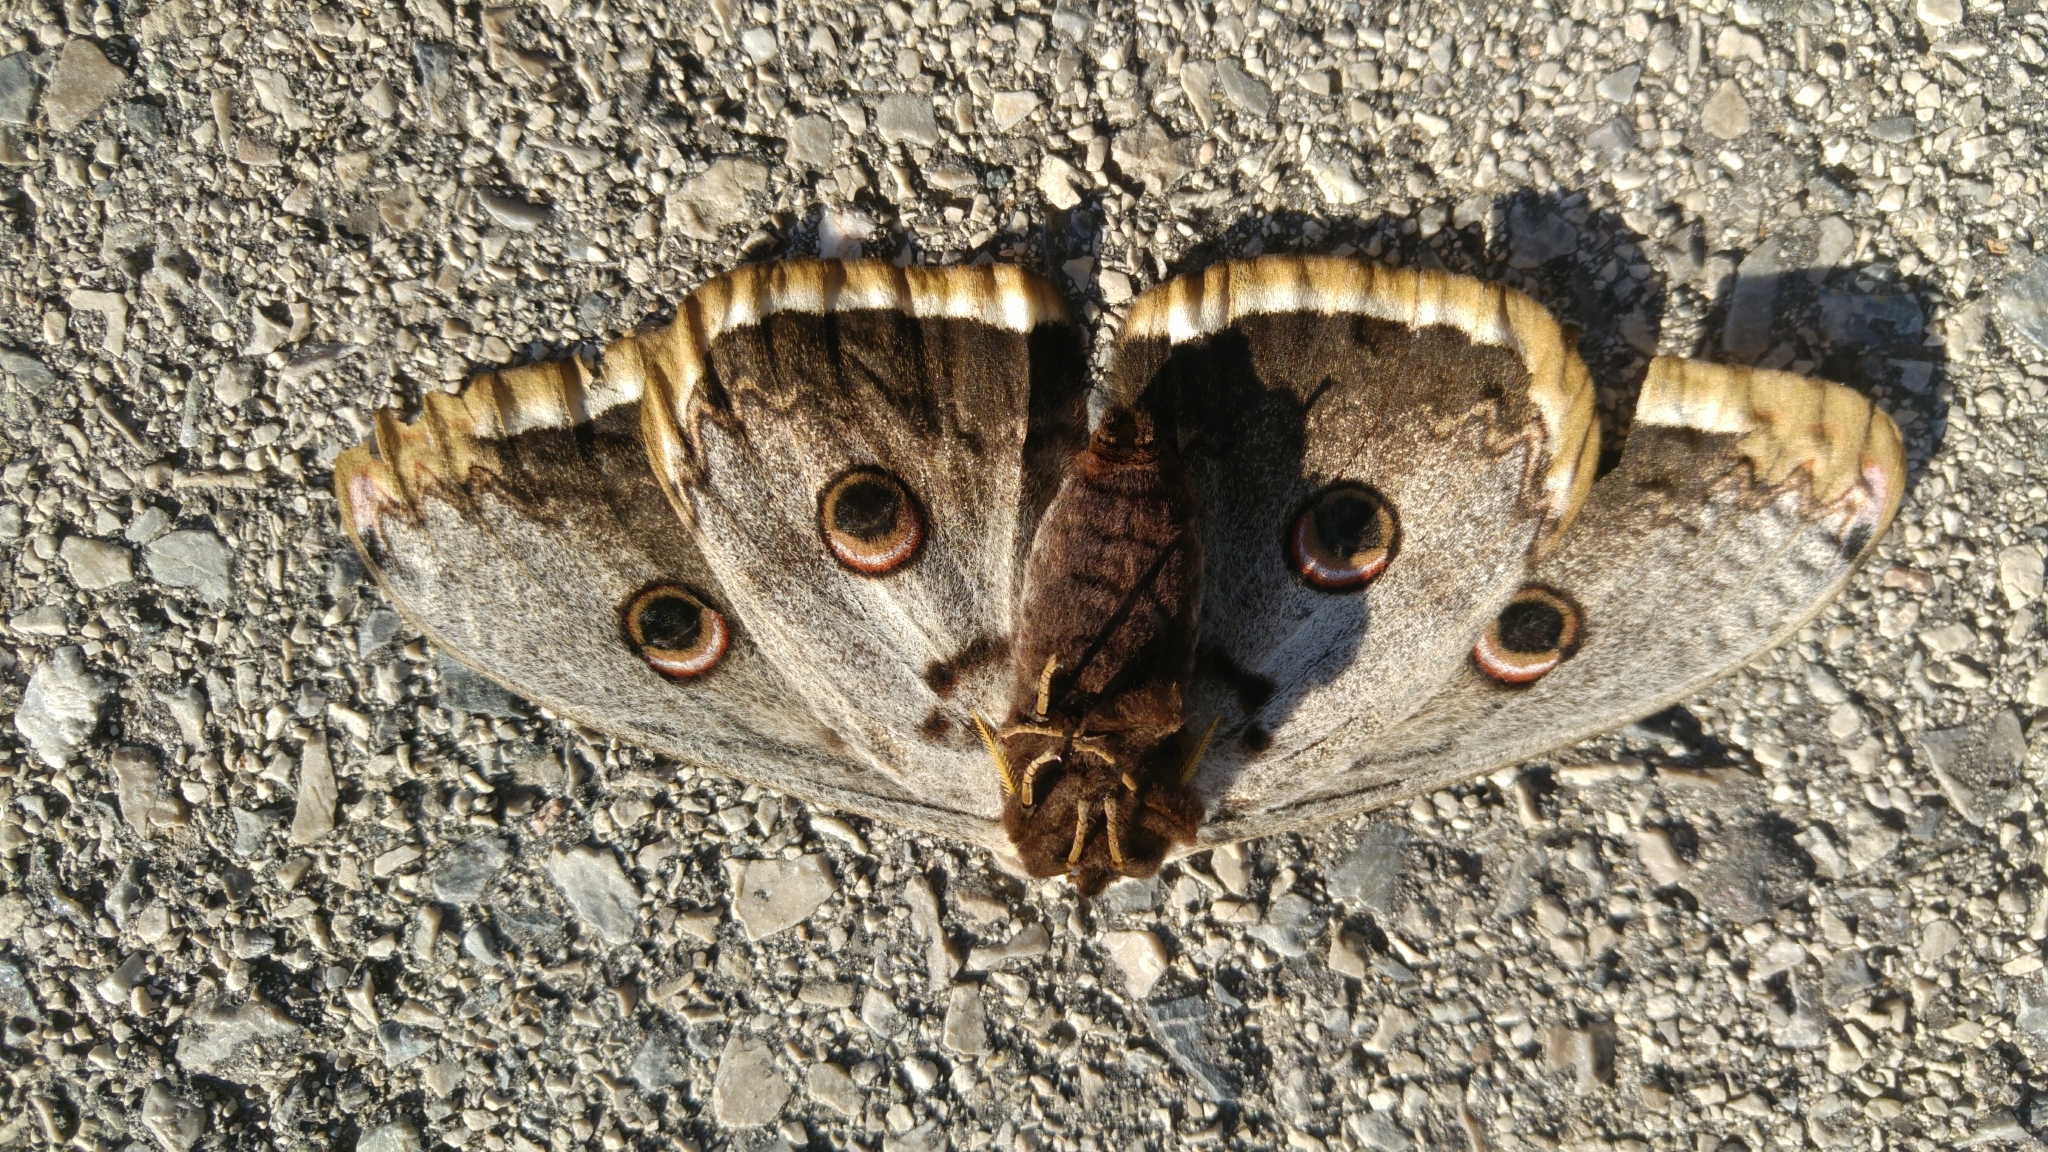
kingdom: Animalia
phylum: Arthropoda
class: Insecta
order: Lepidoptera
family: Saturniidae
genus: Saturnia
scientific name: Saturnia pyri
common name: Great peacock moth
